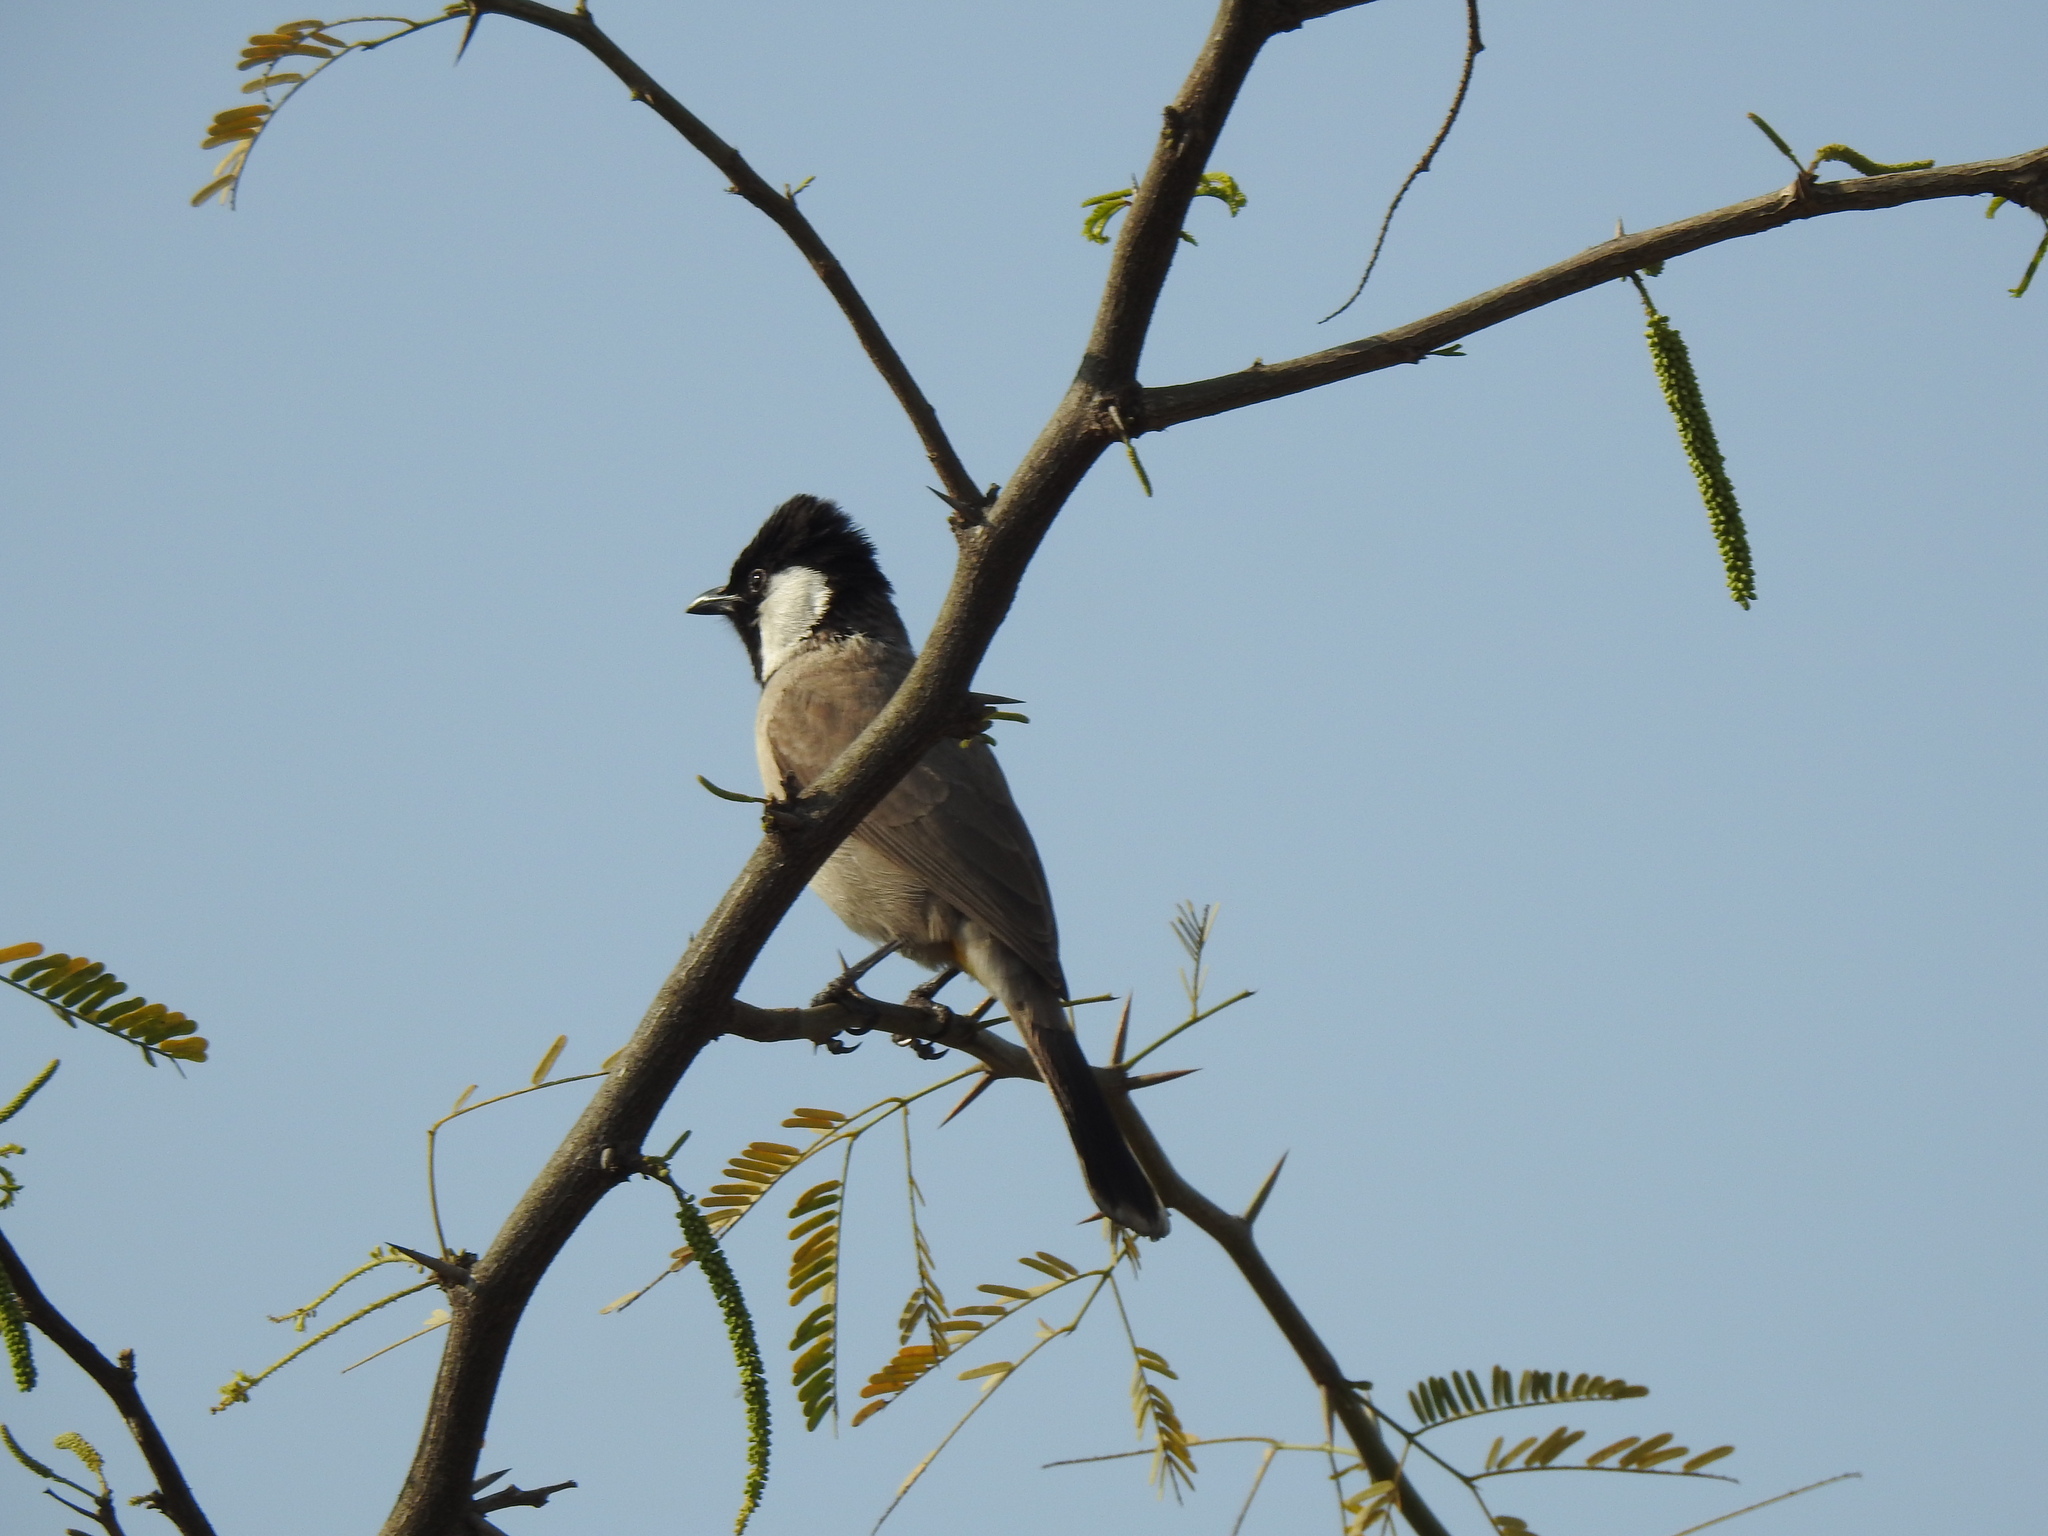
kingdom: Animalia
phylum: Chordata
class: Aves
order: Passeriformes
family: Pycnonotidae
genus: Pycnonotus
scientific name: Pycnonotus leucotis
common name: White-eared bulbul
